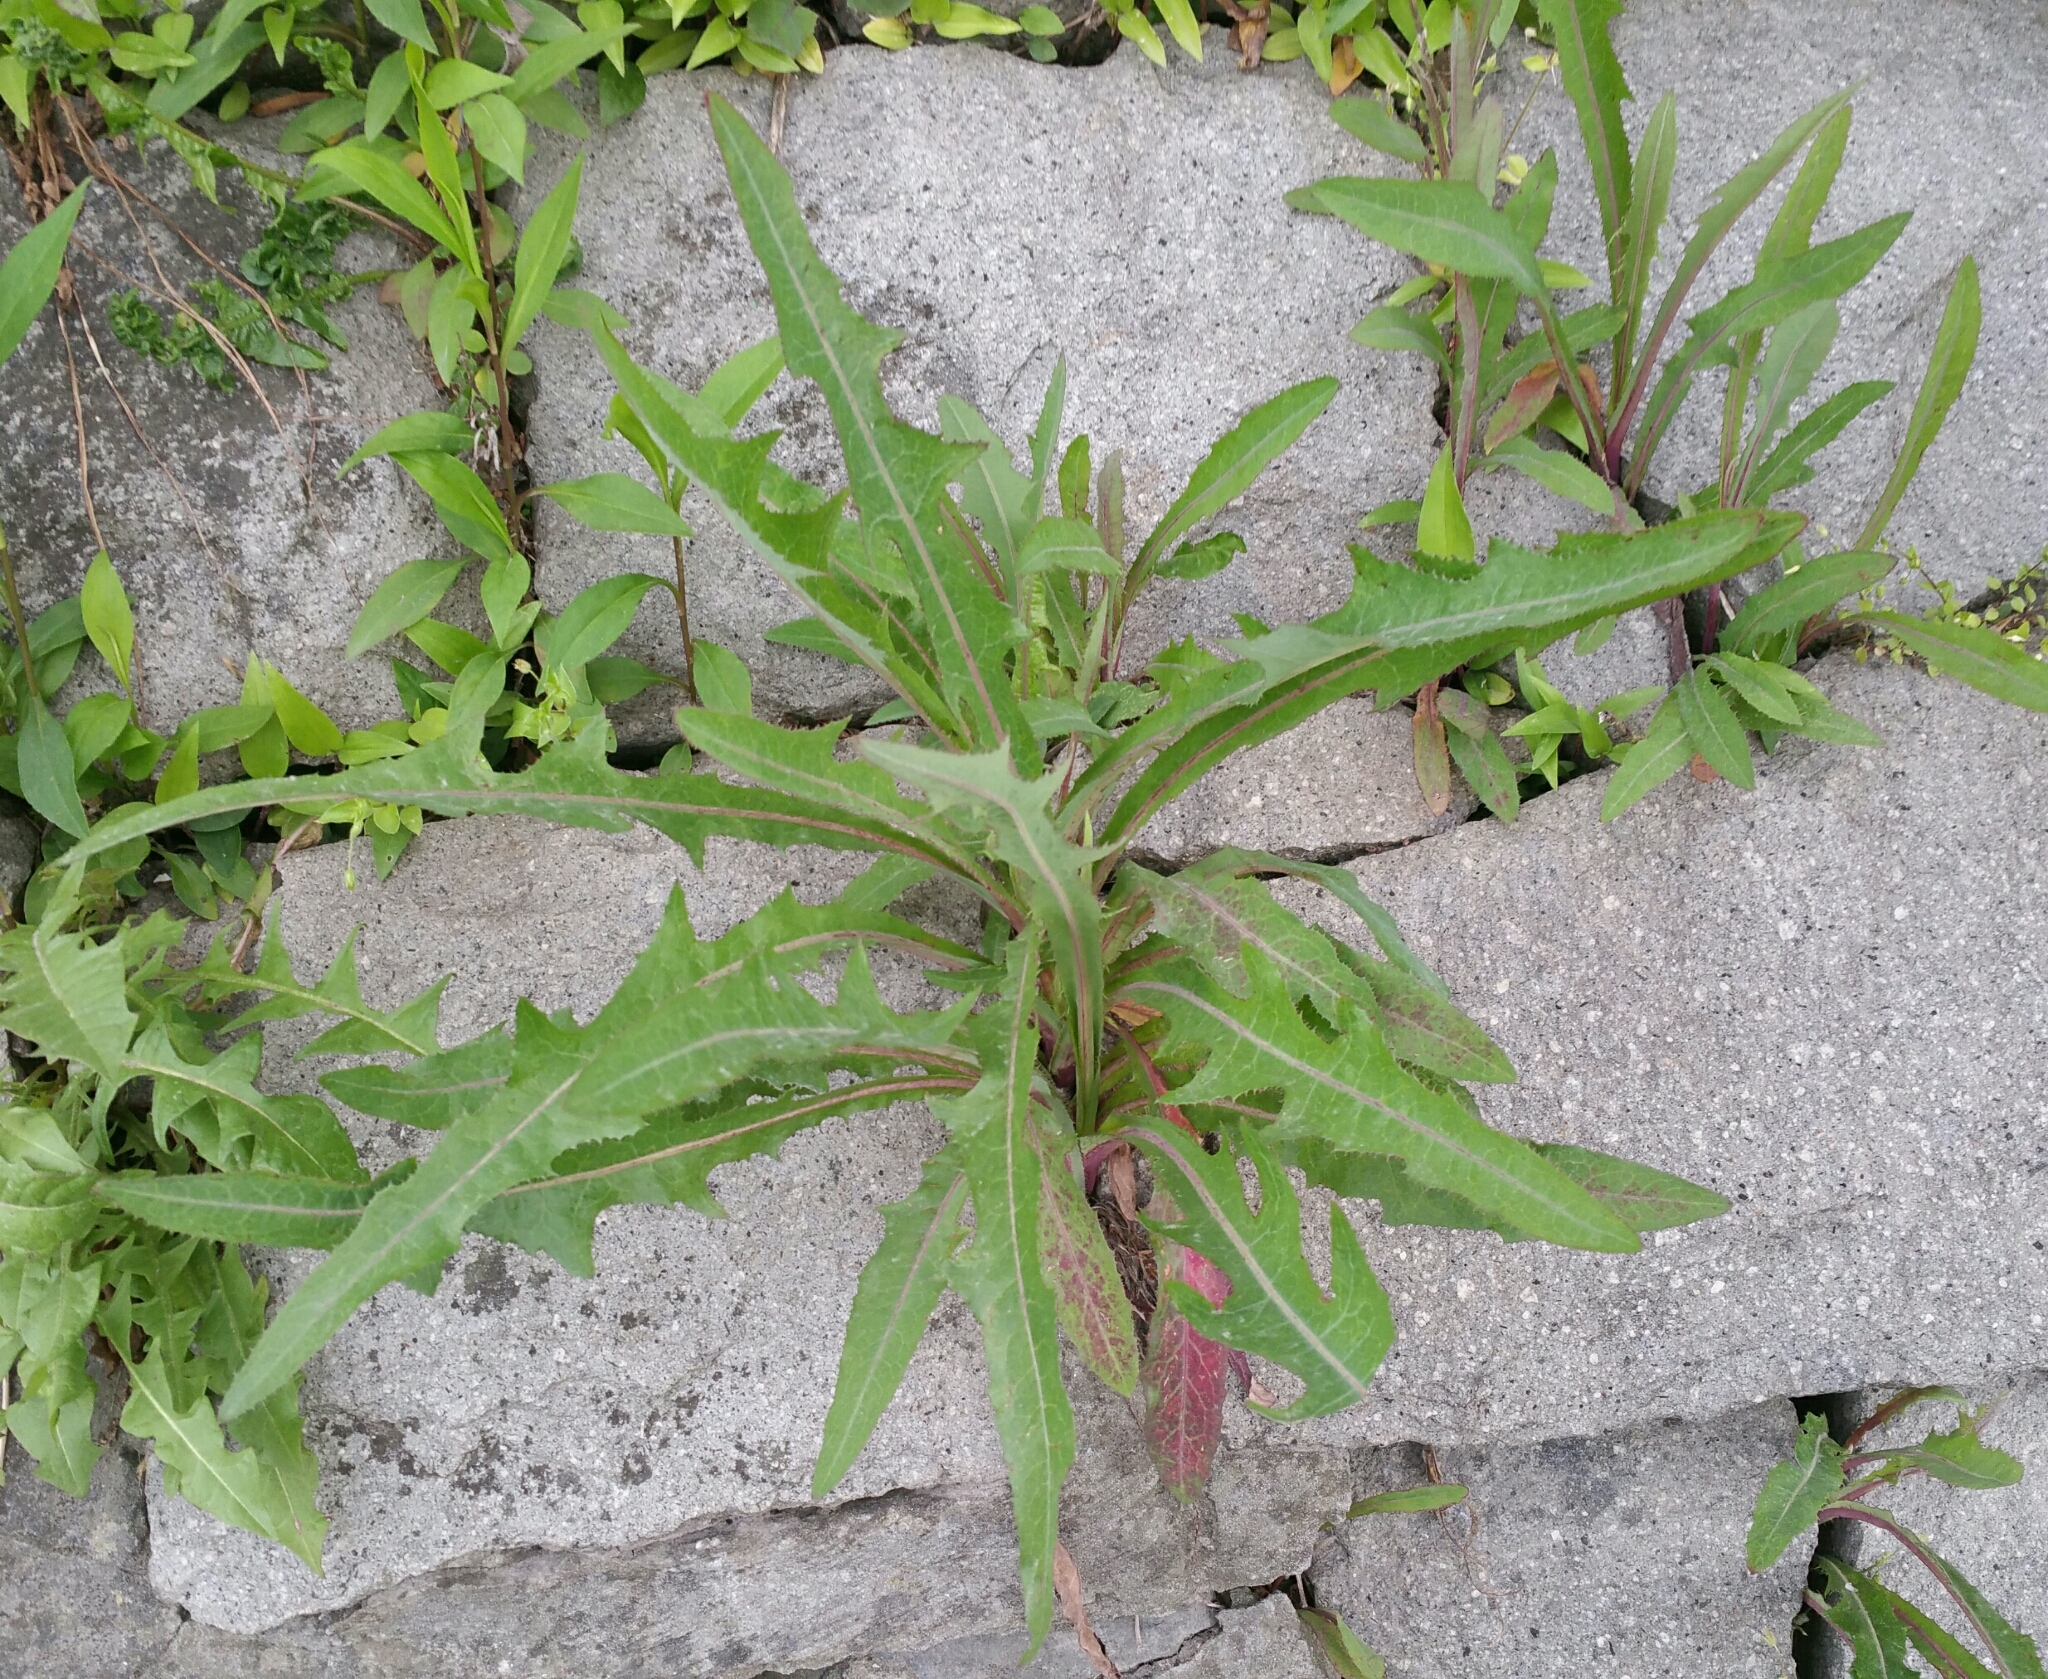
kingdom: Plantae
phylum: Tracheophyta
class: Magnoliopsida
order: Asterales
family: Asteraceae
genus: Sonchus
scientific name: Sonchus arvensis
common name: Perennial sow-thistle
